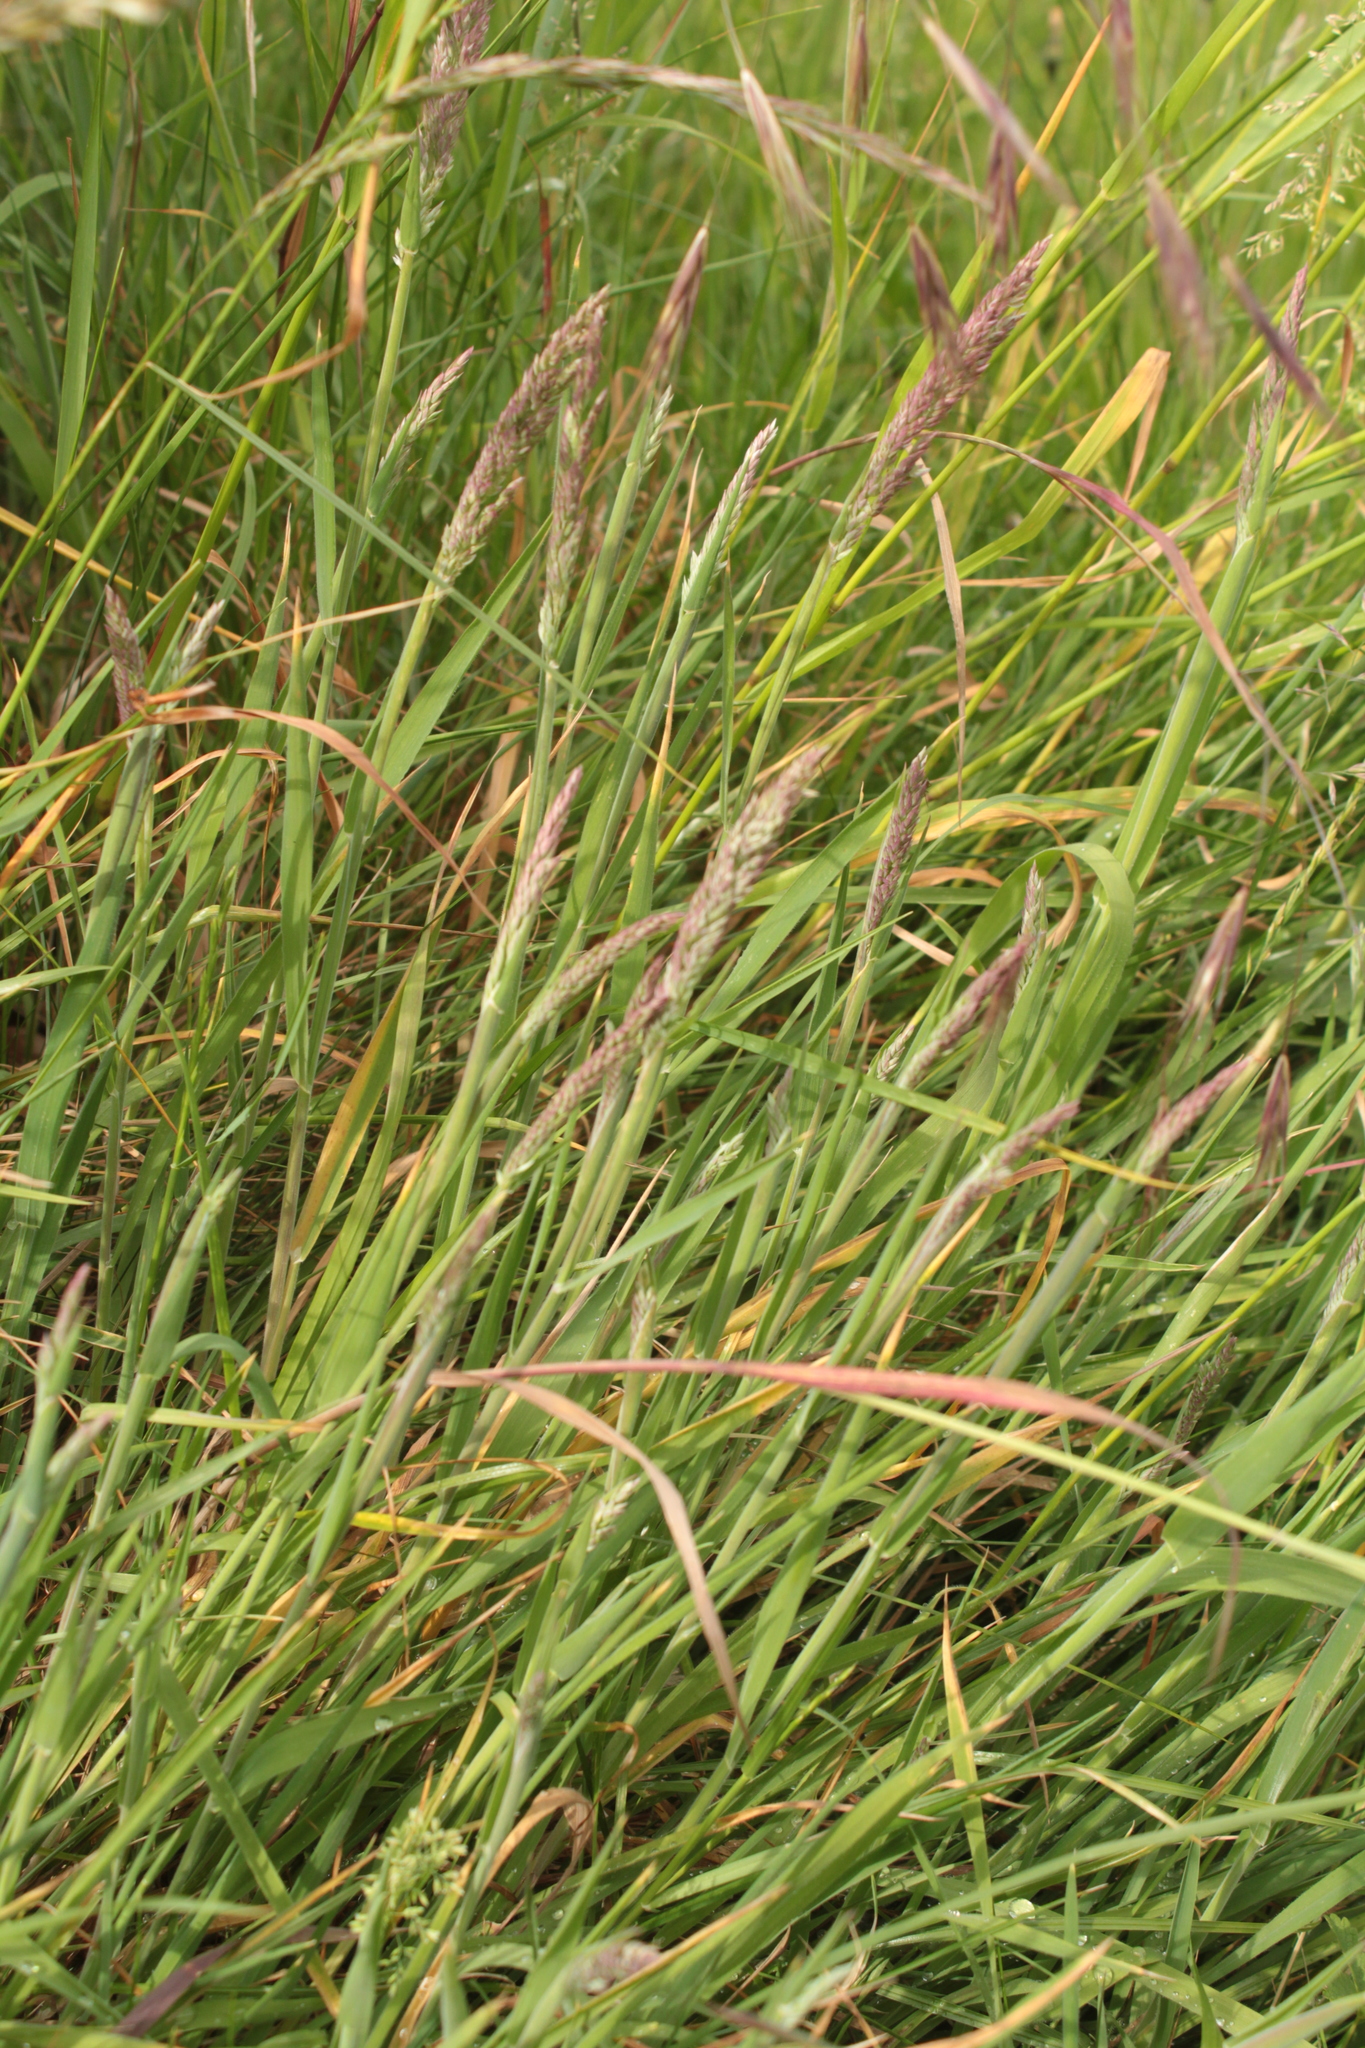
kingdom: Plantae
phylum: Tracheophyta
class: Liliopsida
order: Poales
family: Poaceae
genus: Holcus
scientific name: Holcus lanatus
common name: Yorkshire-fog
